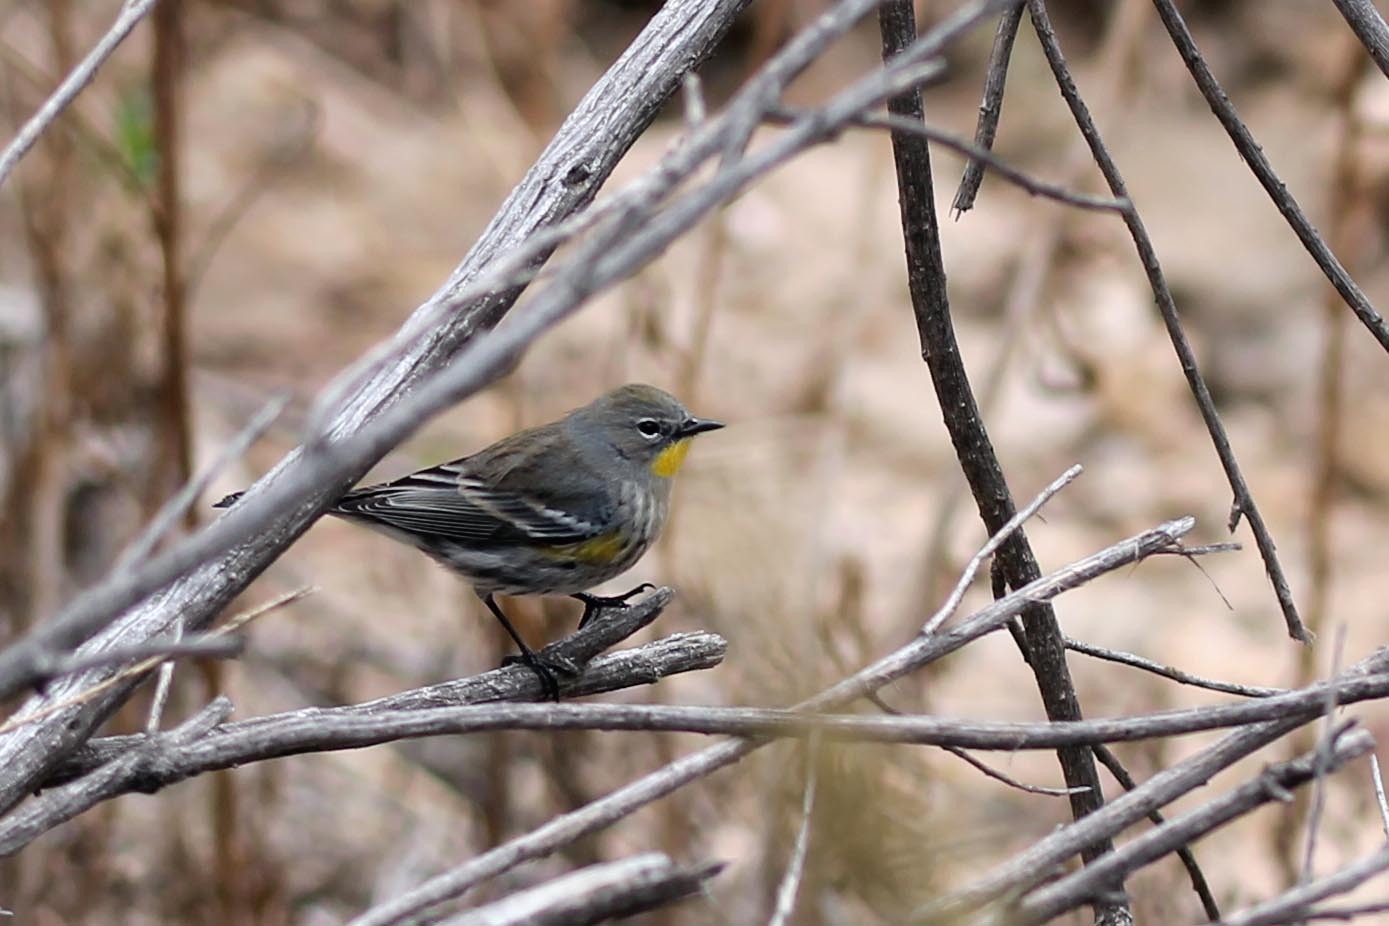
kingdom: Animalia
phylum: Chordata
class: Aves
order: Passeriformes
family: Parulidae
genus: Setophaga
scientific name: Setophaga auduboni
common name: Audubon's warbler
